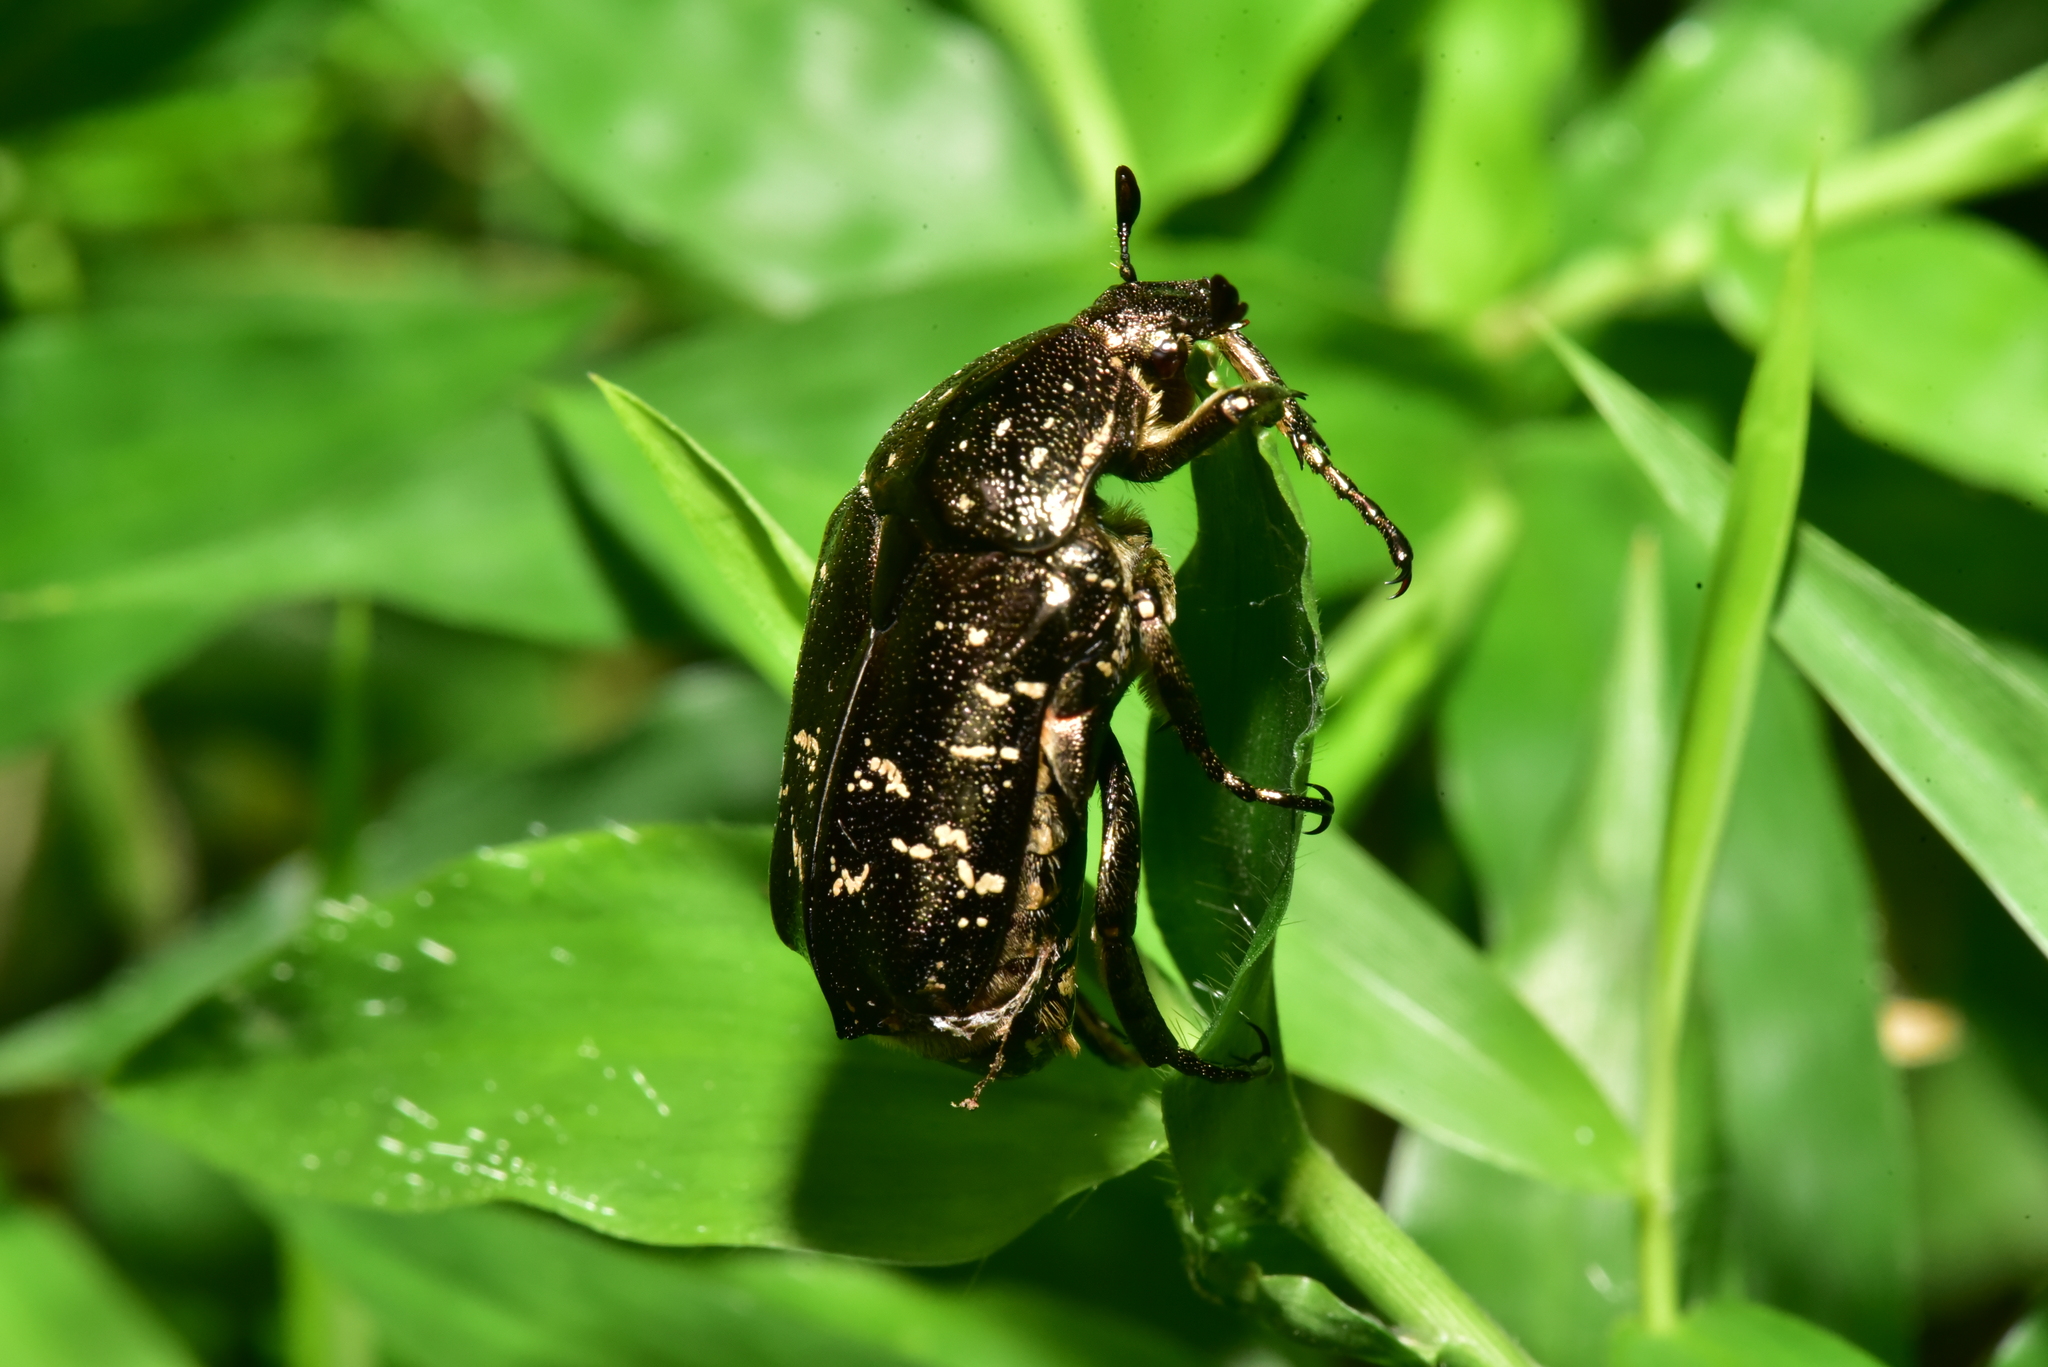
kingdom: Animalia
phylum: Arthropoda
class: Insecta
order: Coleoptera
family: Scarabaeidae
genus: Protaetia
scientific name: Protaetia orientalis
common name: Oriental flower beetle
